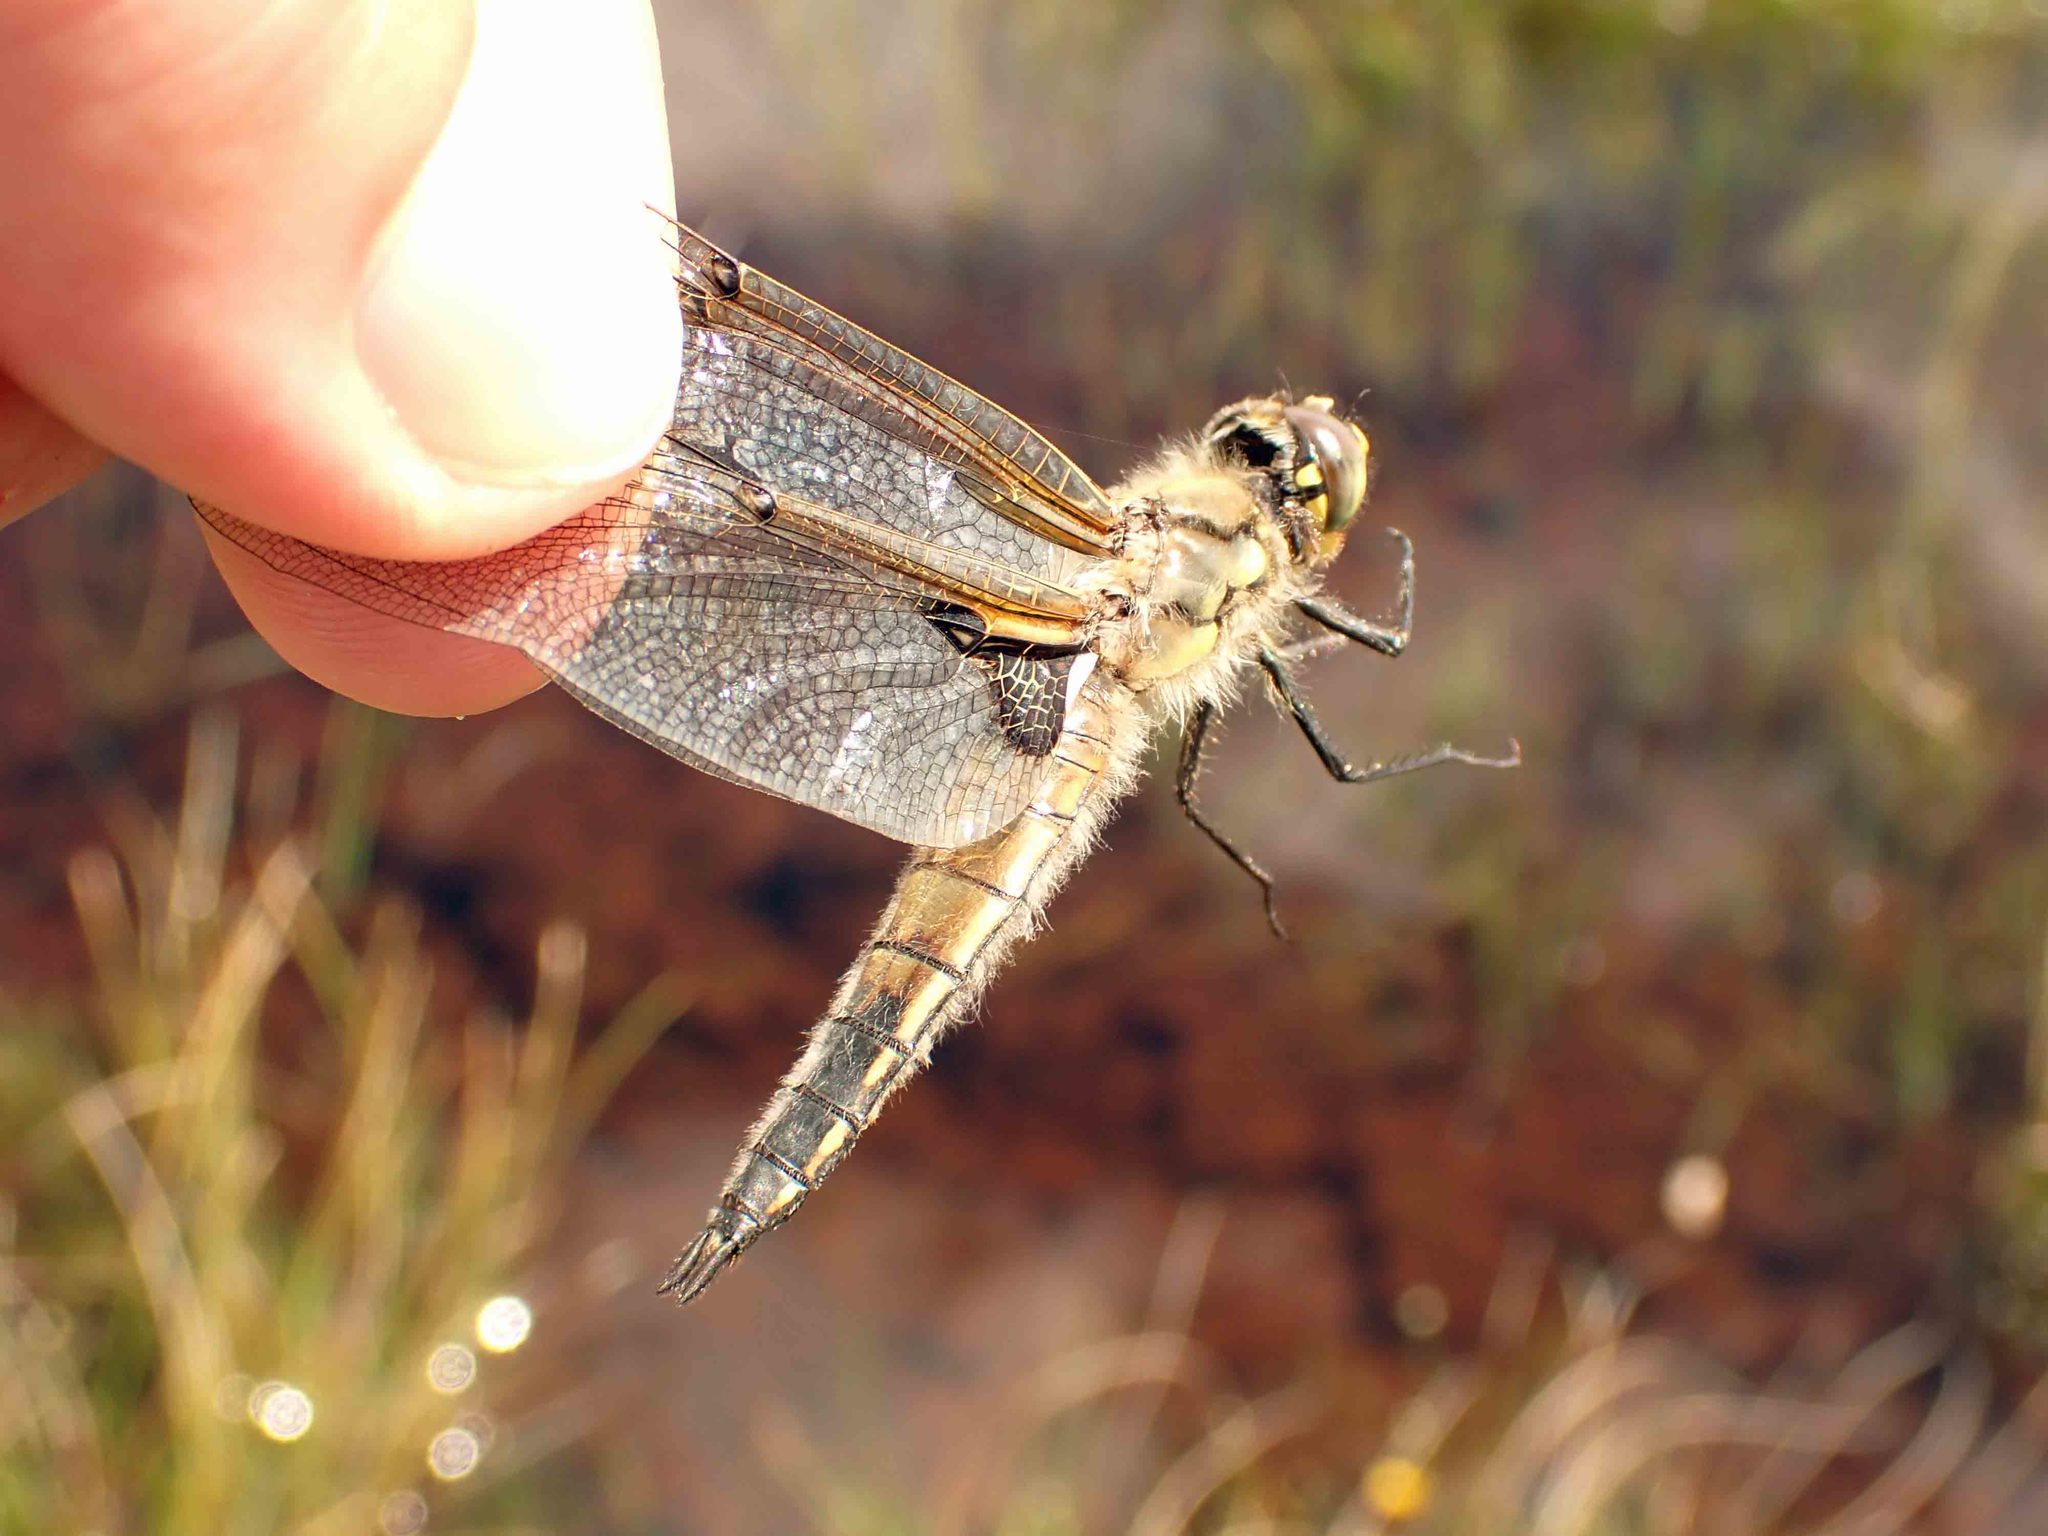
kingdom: Animalia
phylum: Arthropoda
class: Insecta
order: Odonata
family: Libellulidae
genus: Libellula
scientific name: Libellula quadrimaculata
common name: Four-spotted chaser
